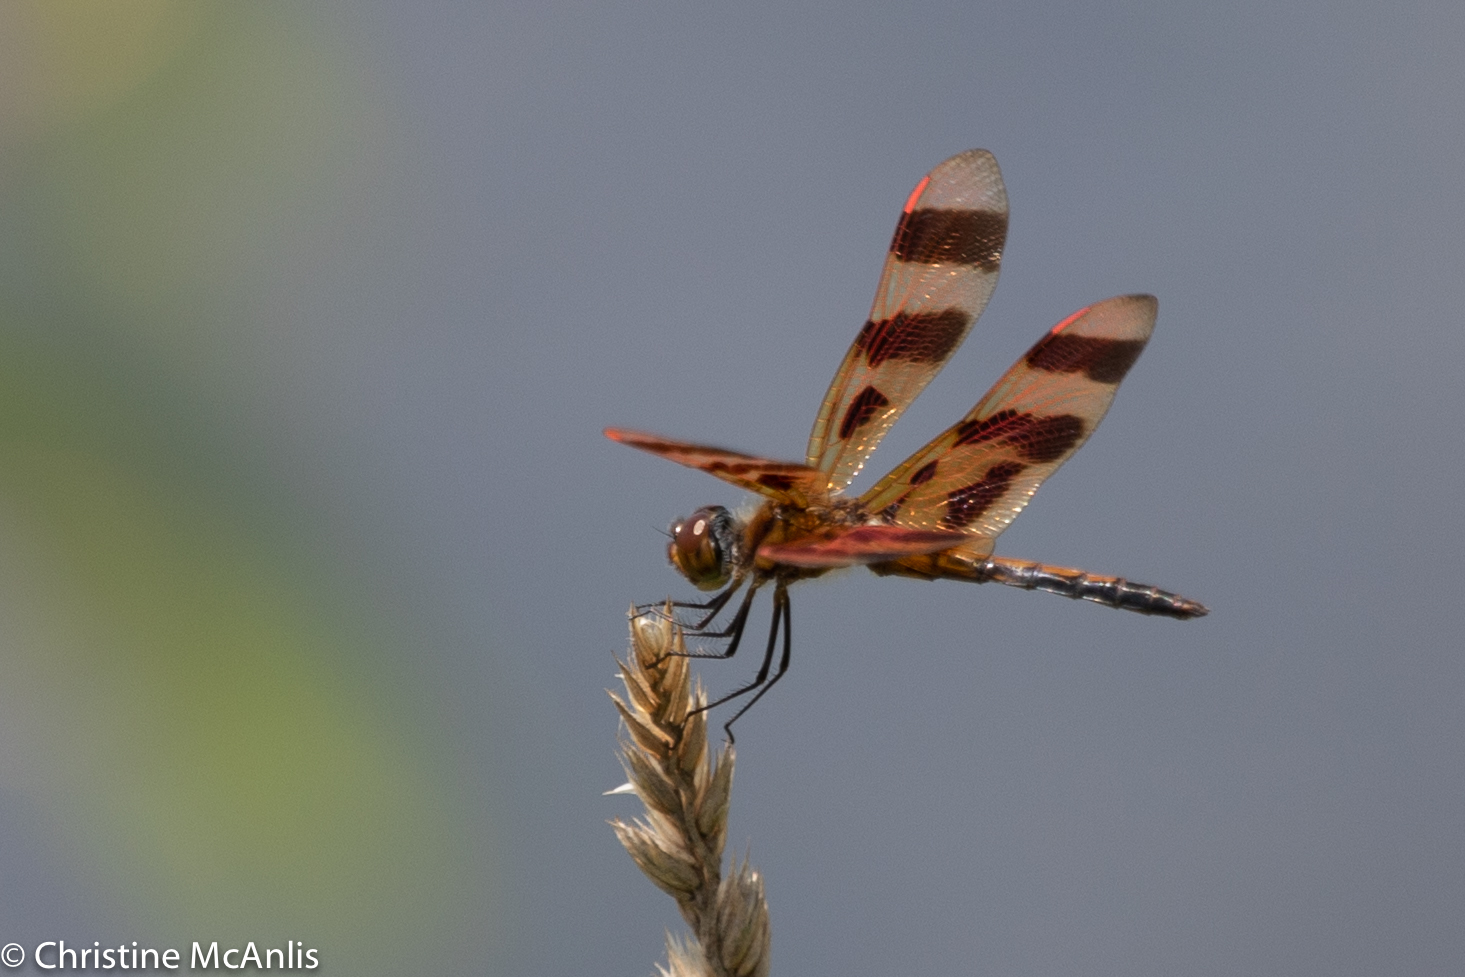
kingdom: Animalia
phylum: Arthropoda
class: Insecta
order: Odonata
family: Libellulidae
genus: Celithemis
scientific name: Celithemis eponina
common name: Halloween pennant
